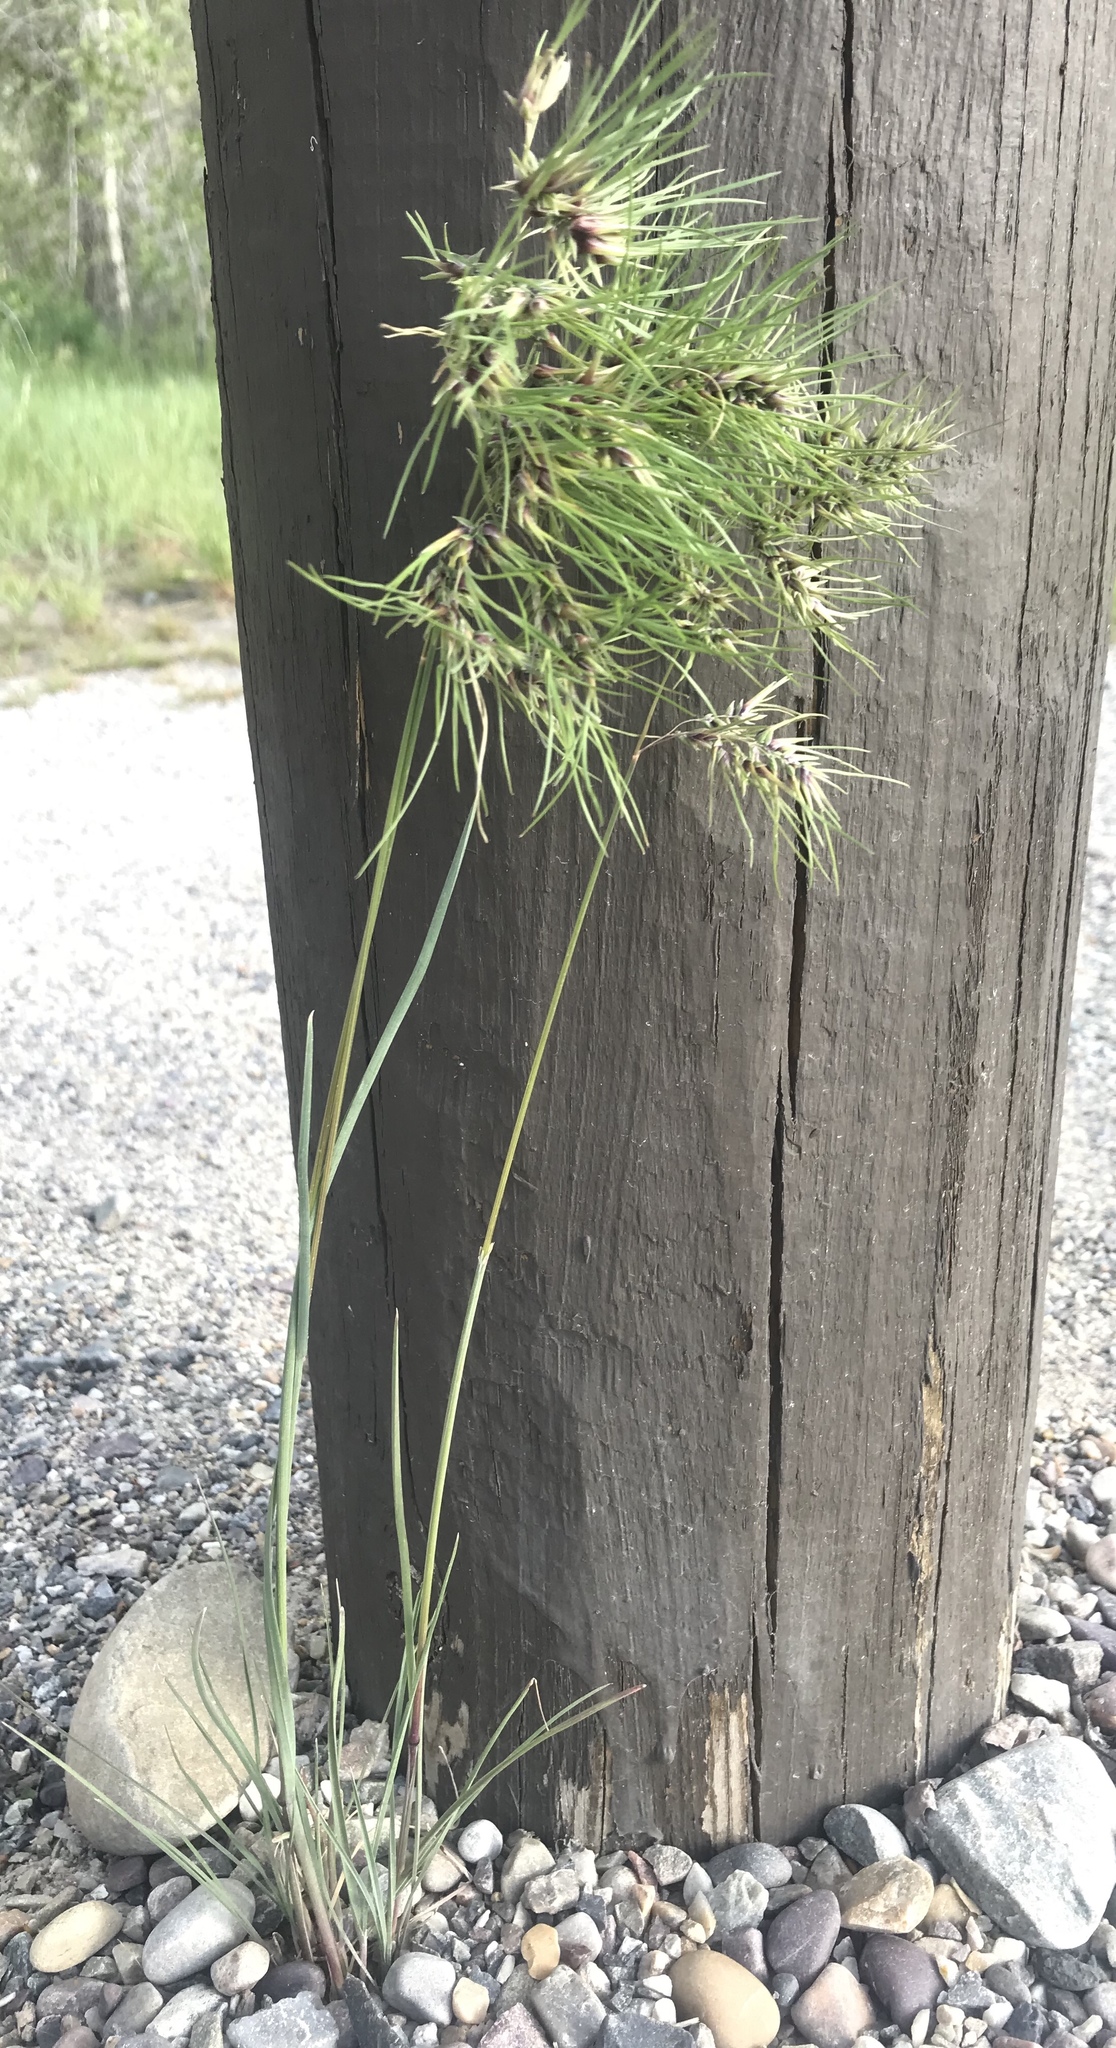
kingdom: Plantae
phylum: Tracheophyta
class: Liliopsida
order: Poales
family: Poaceae
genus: Poa
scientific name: Poa bulbosa
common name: Bulbous bluegrass
